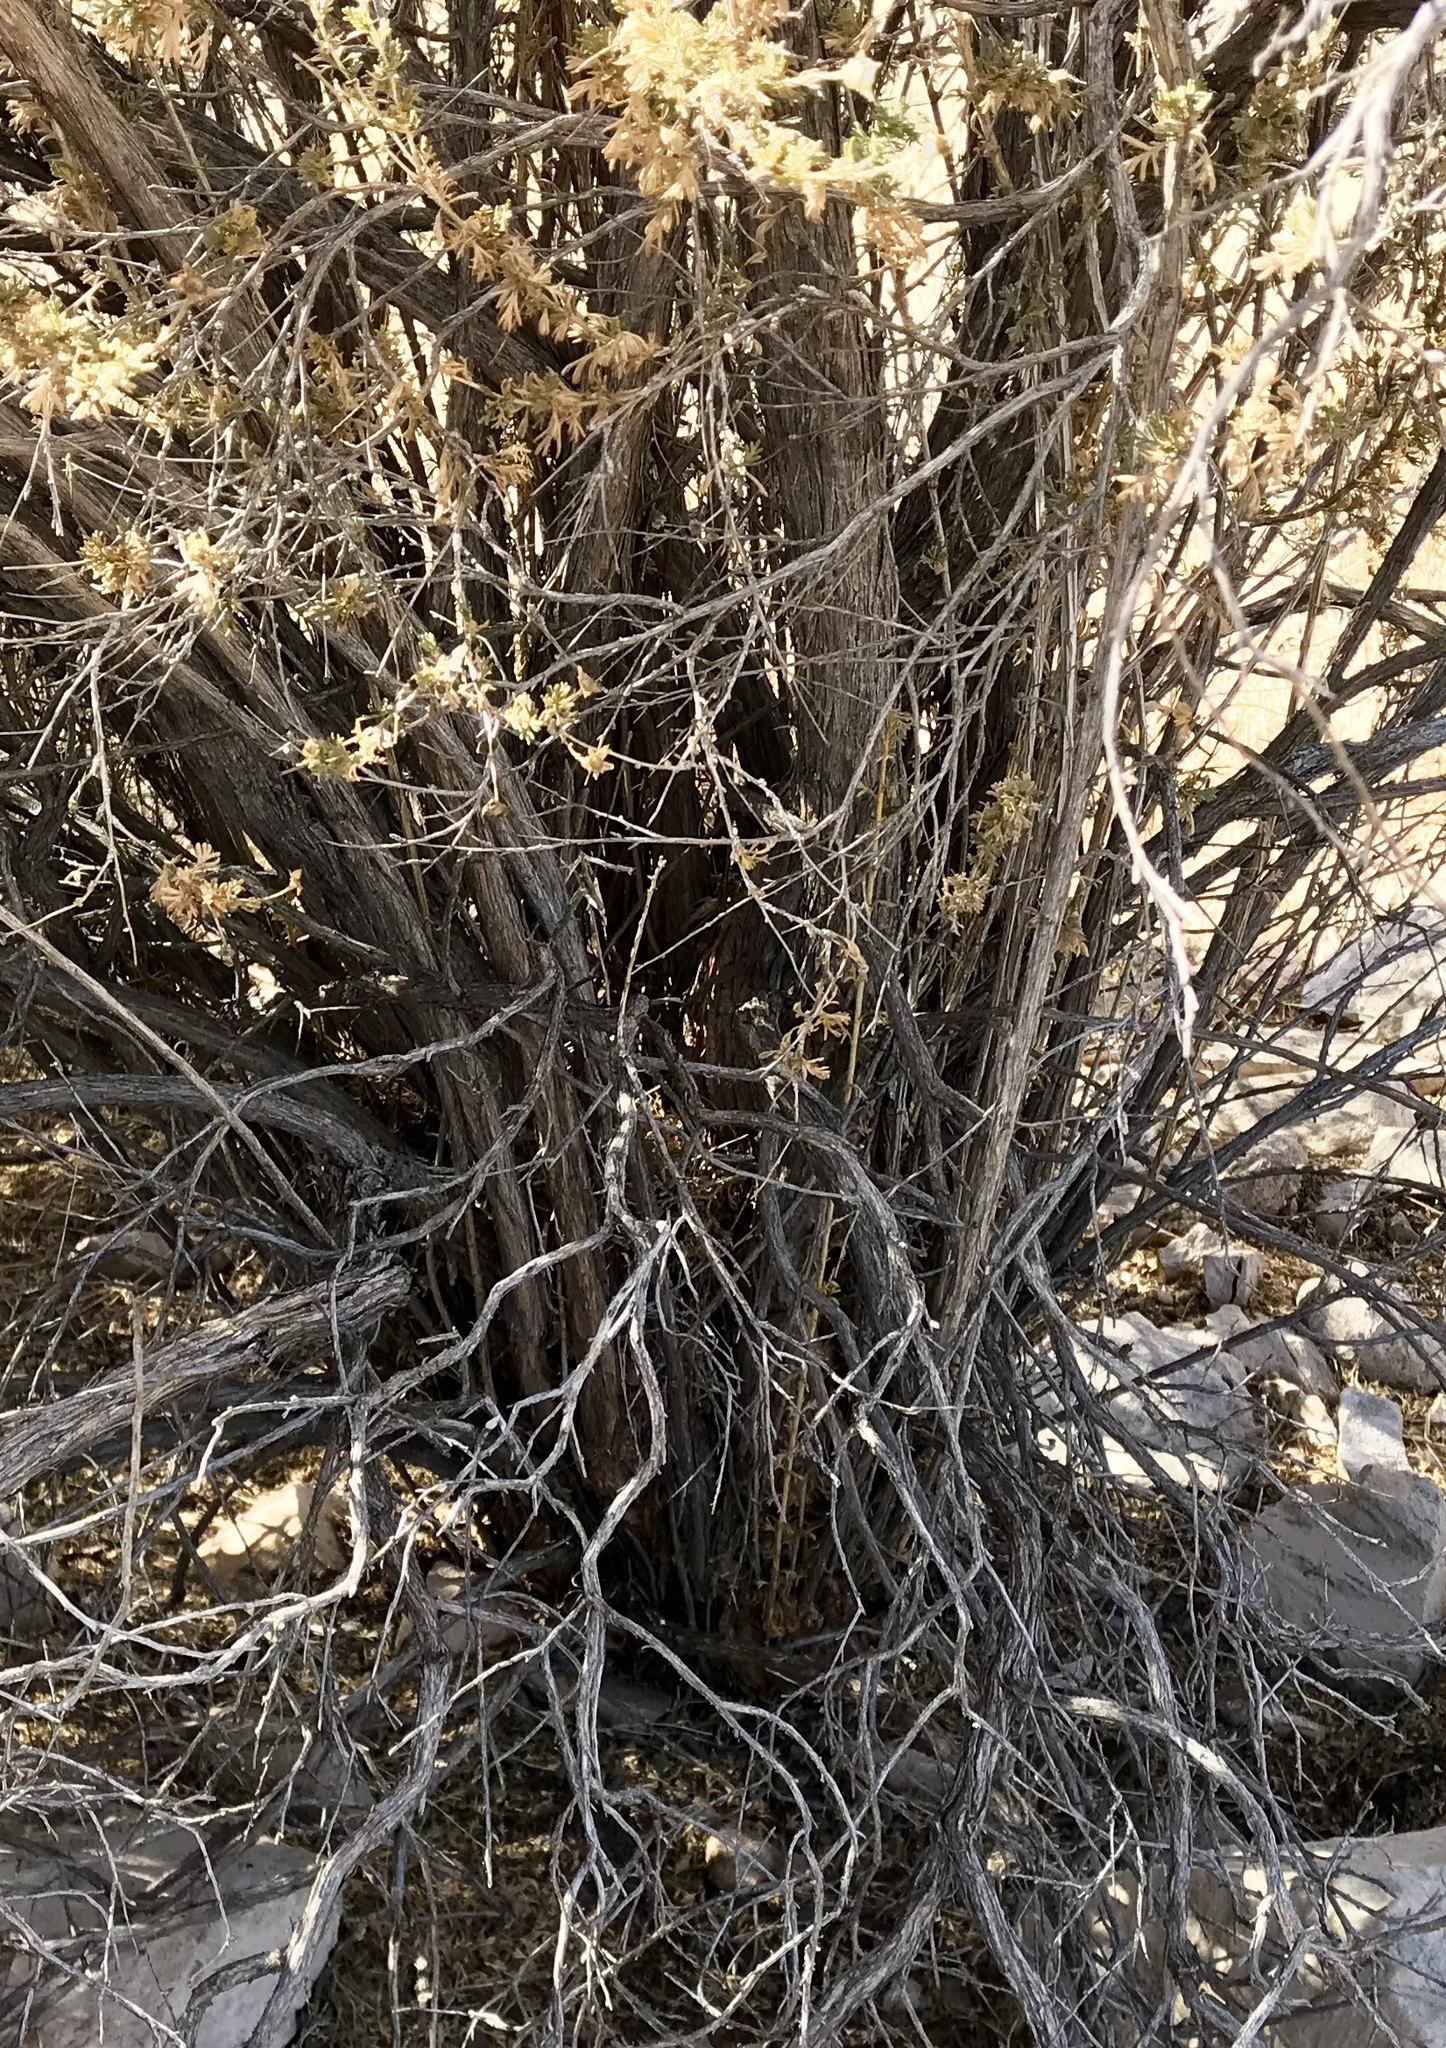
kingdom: Plantae
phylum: Tracheophyta
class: Magnoliopsida
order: Rosales
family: Rosaceae
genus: Fallugia
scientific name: Fallugia paradoxa
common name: Apache-plume
